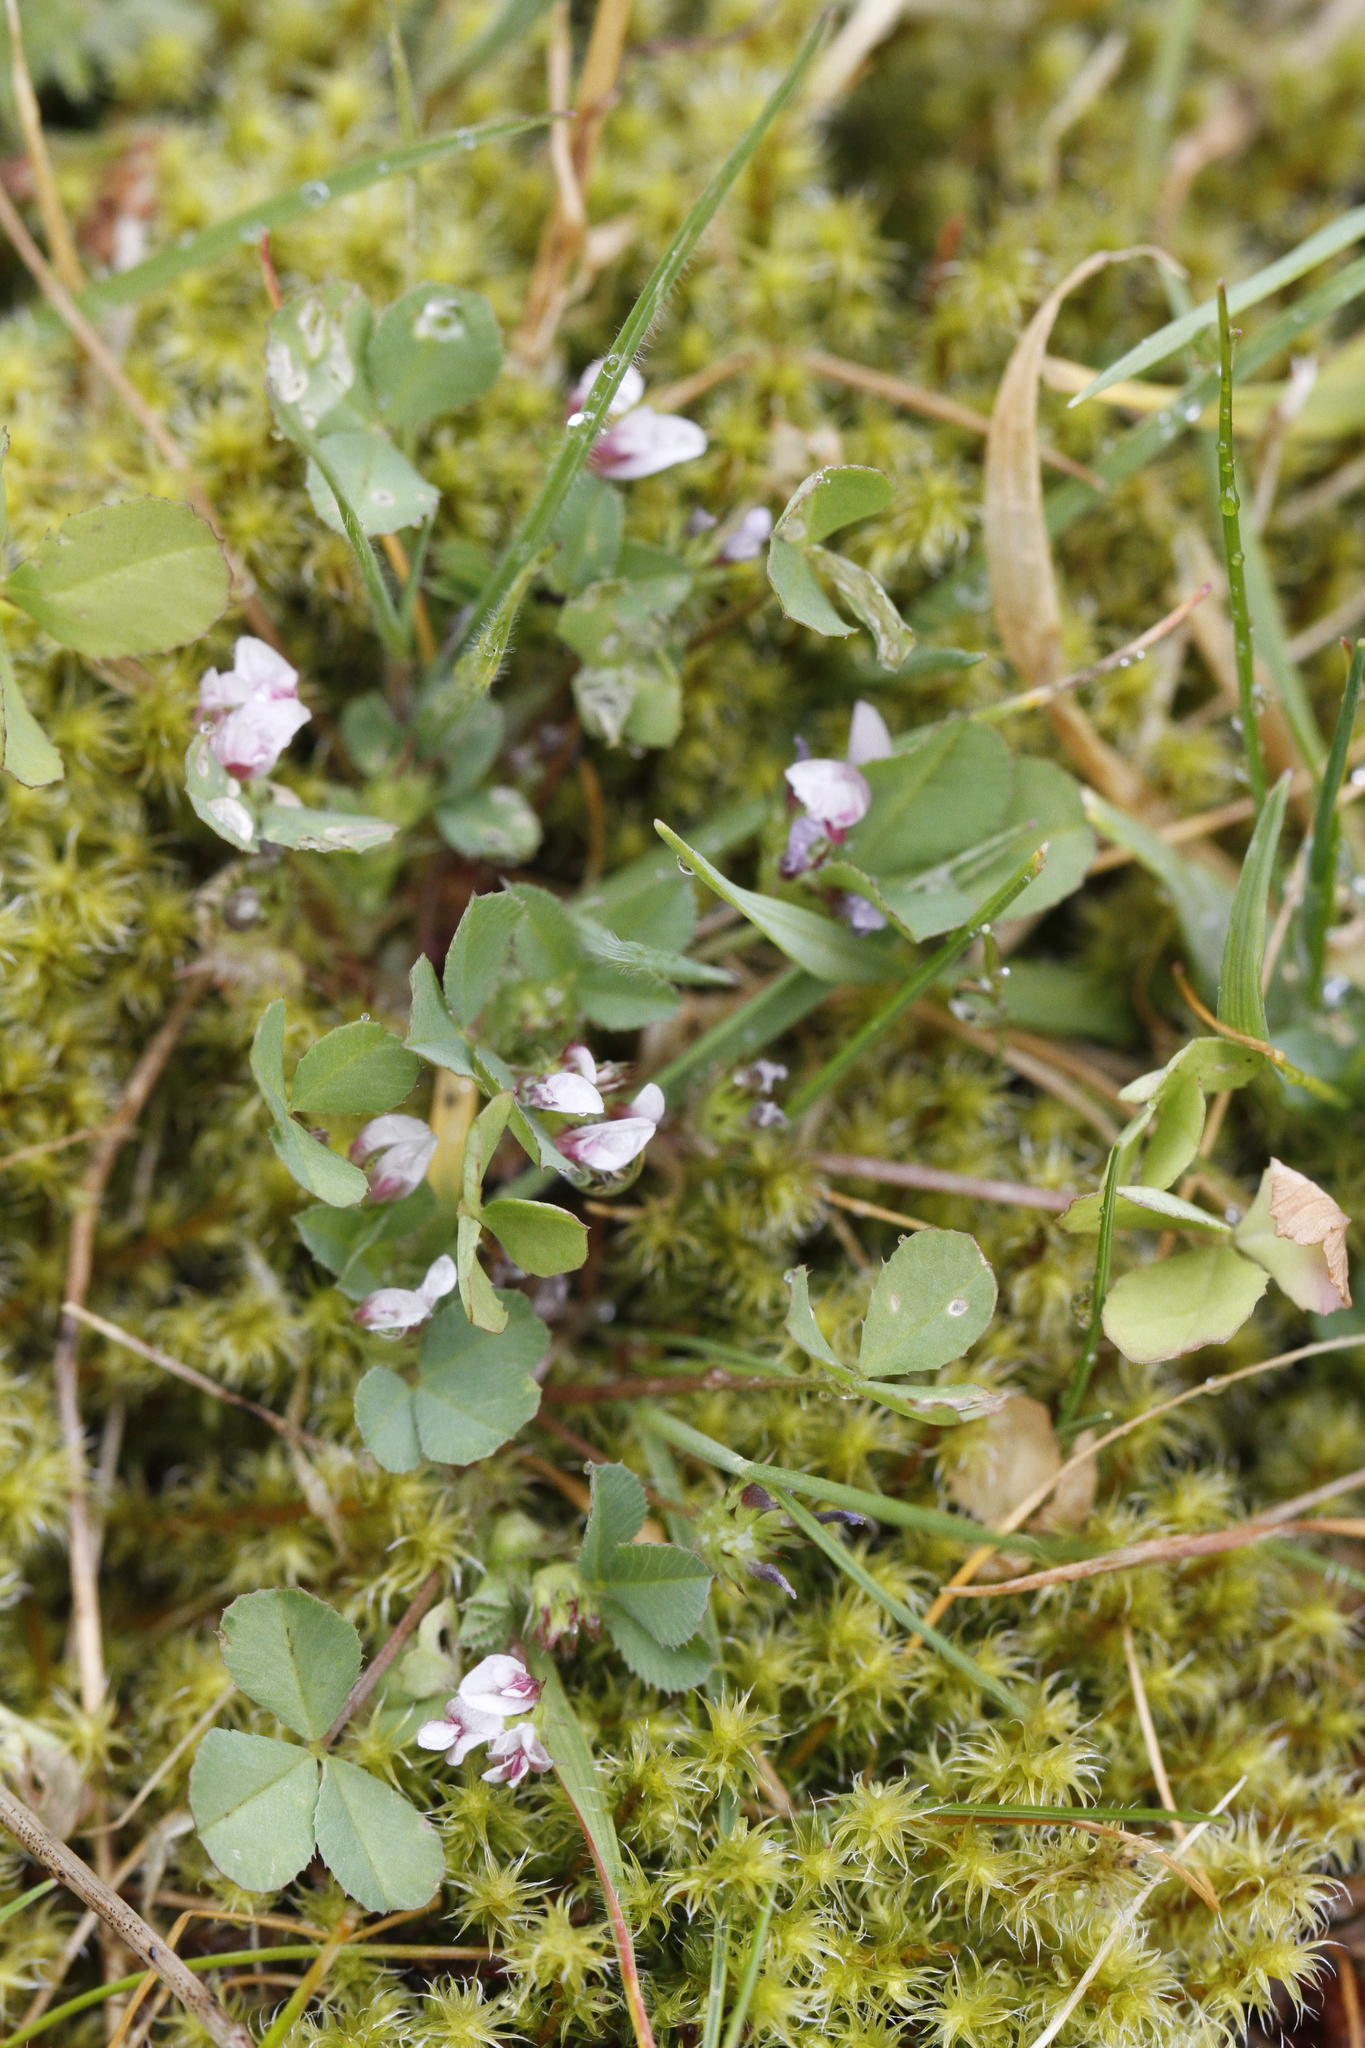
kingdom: Plantae
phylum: Tracheophyta
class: Magnoliopsida
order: Fabales
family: Fabaceae
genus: Trifolium
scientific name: Trifolium variegatum
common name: Whitetip clover
